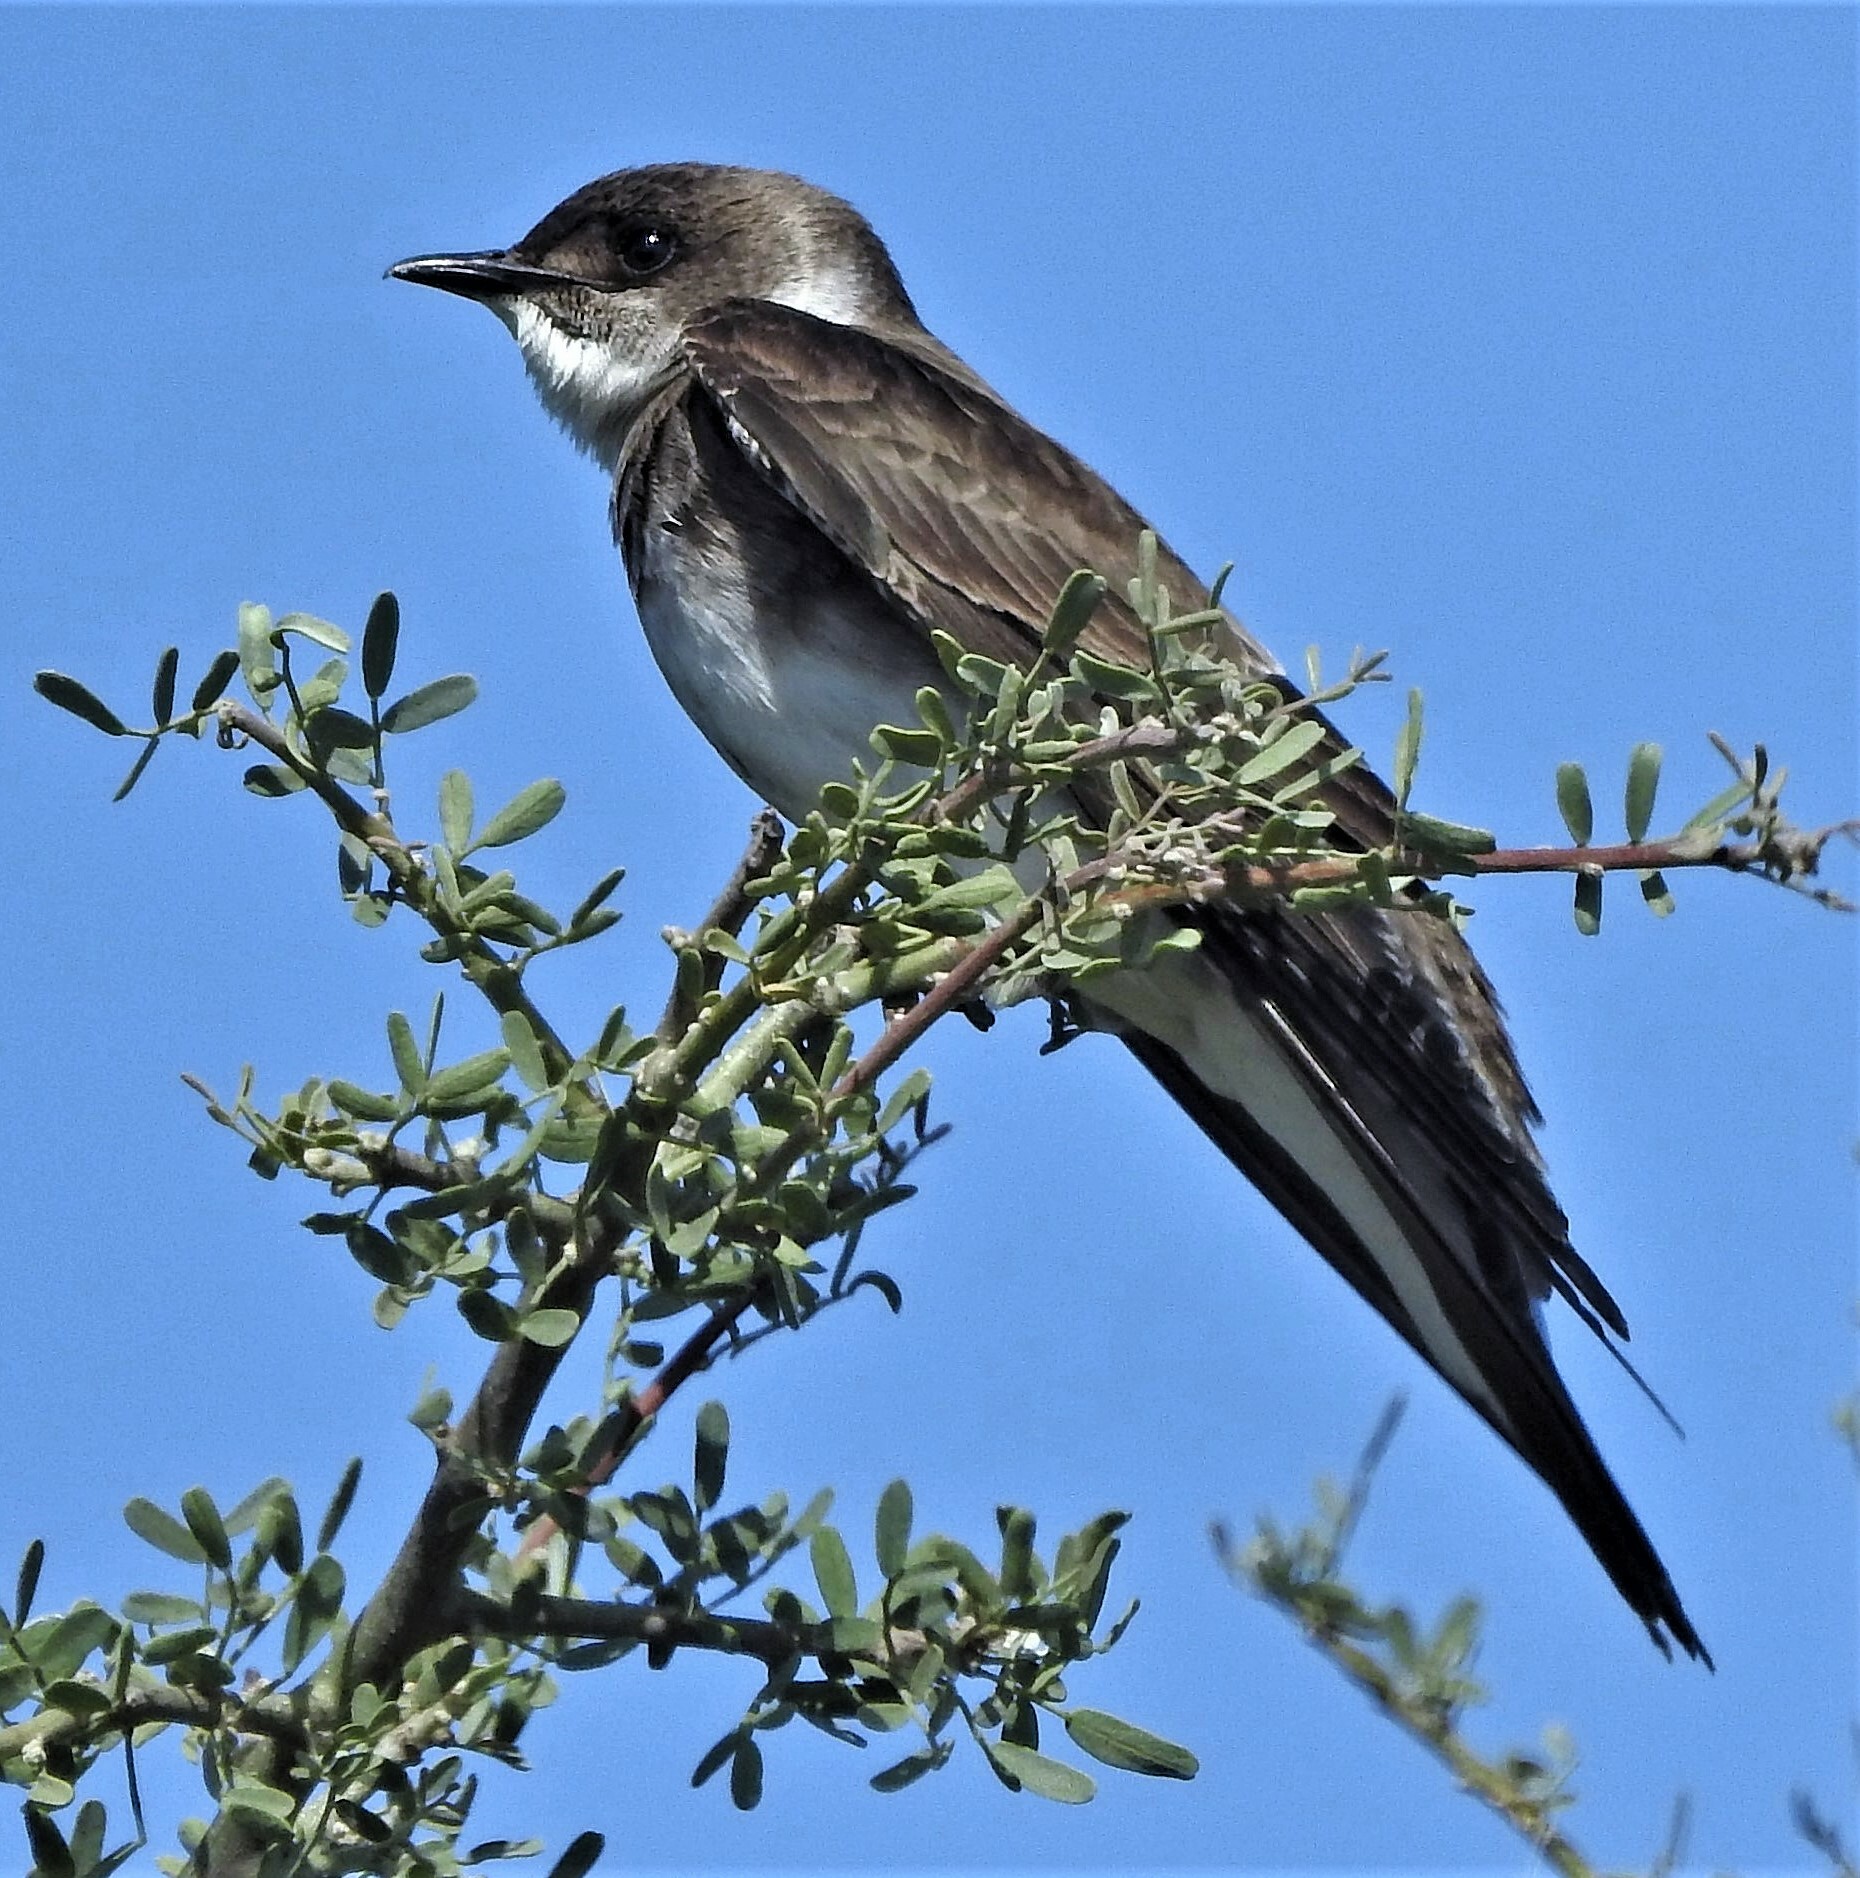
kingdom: Animalia
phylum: Chordata
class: Aves
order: Passeriformes
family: Hirundinidae
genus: Progne
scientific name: Progne tapera
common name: Brown-chested martin
